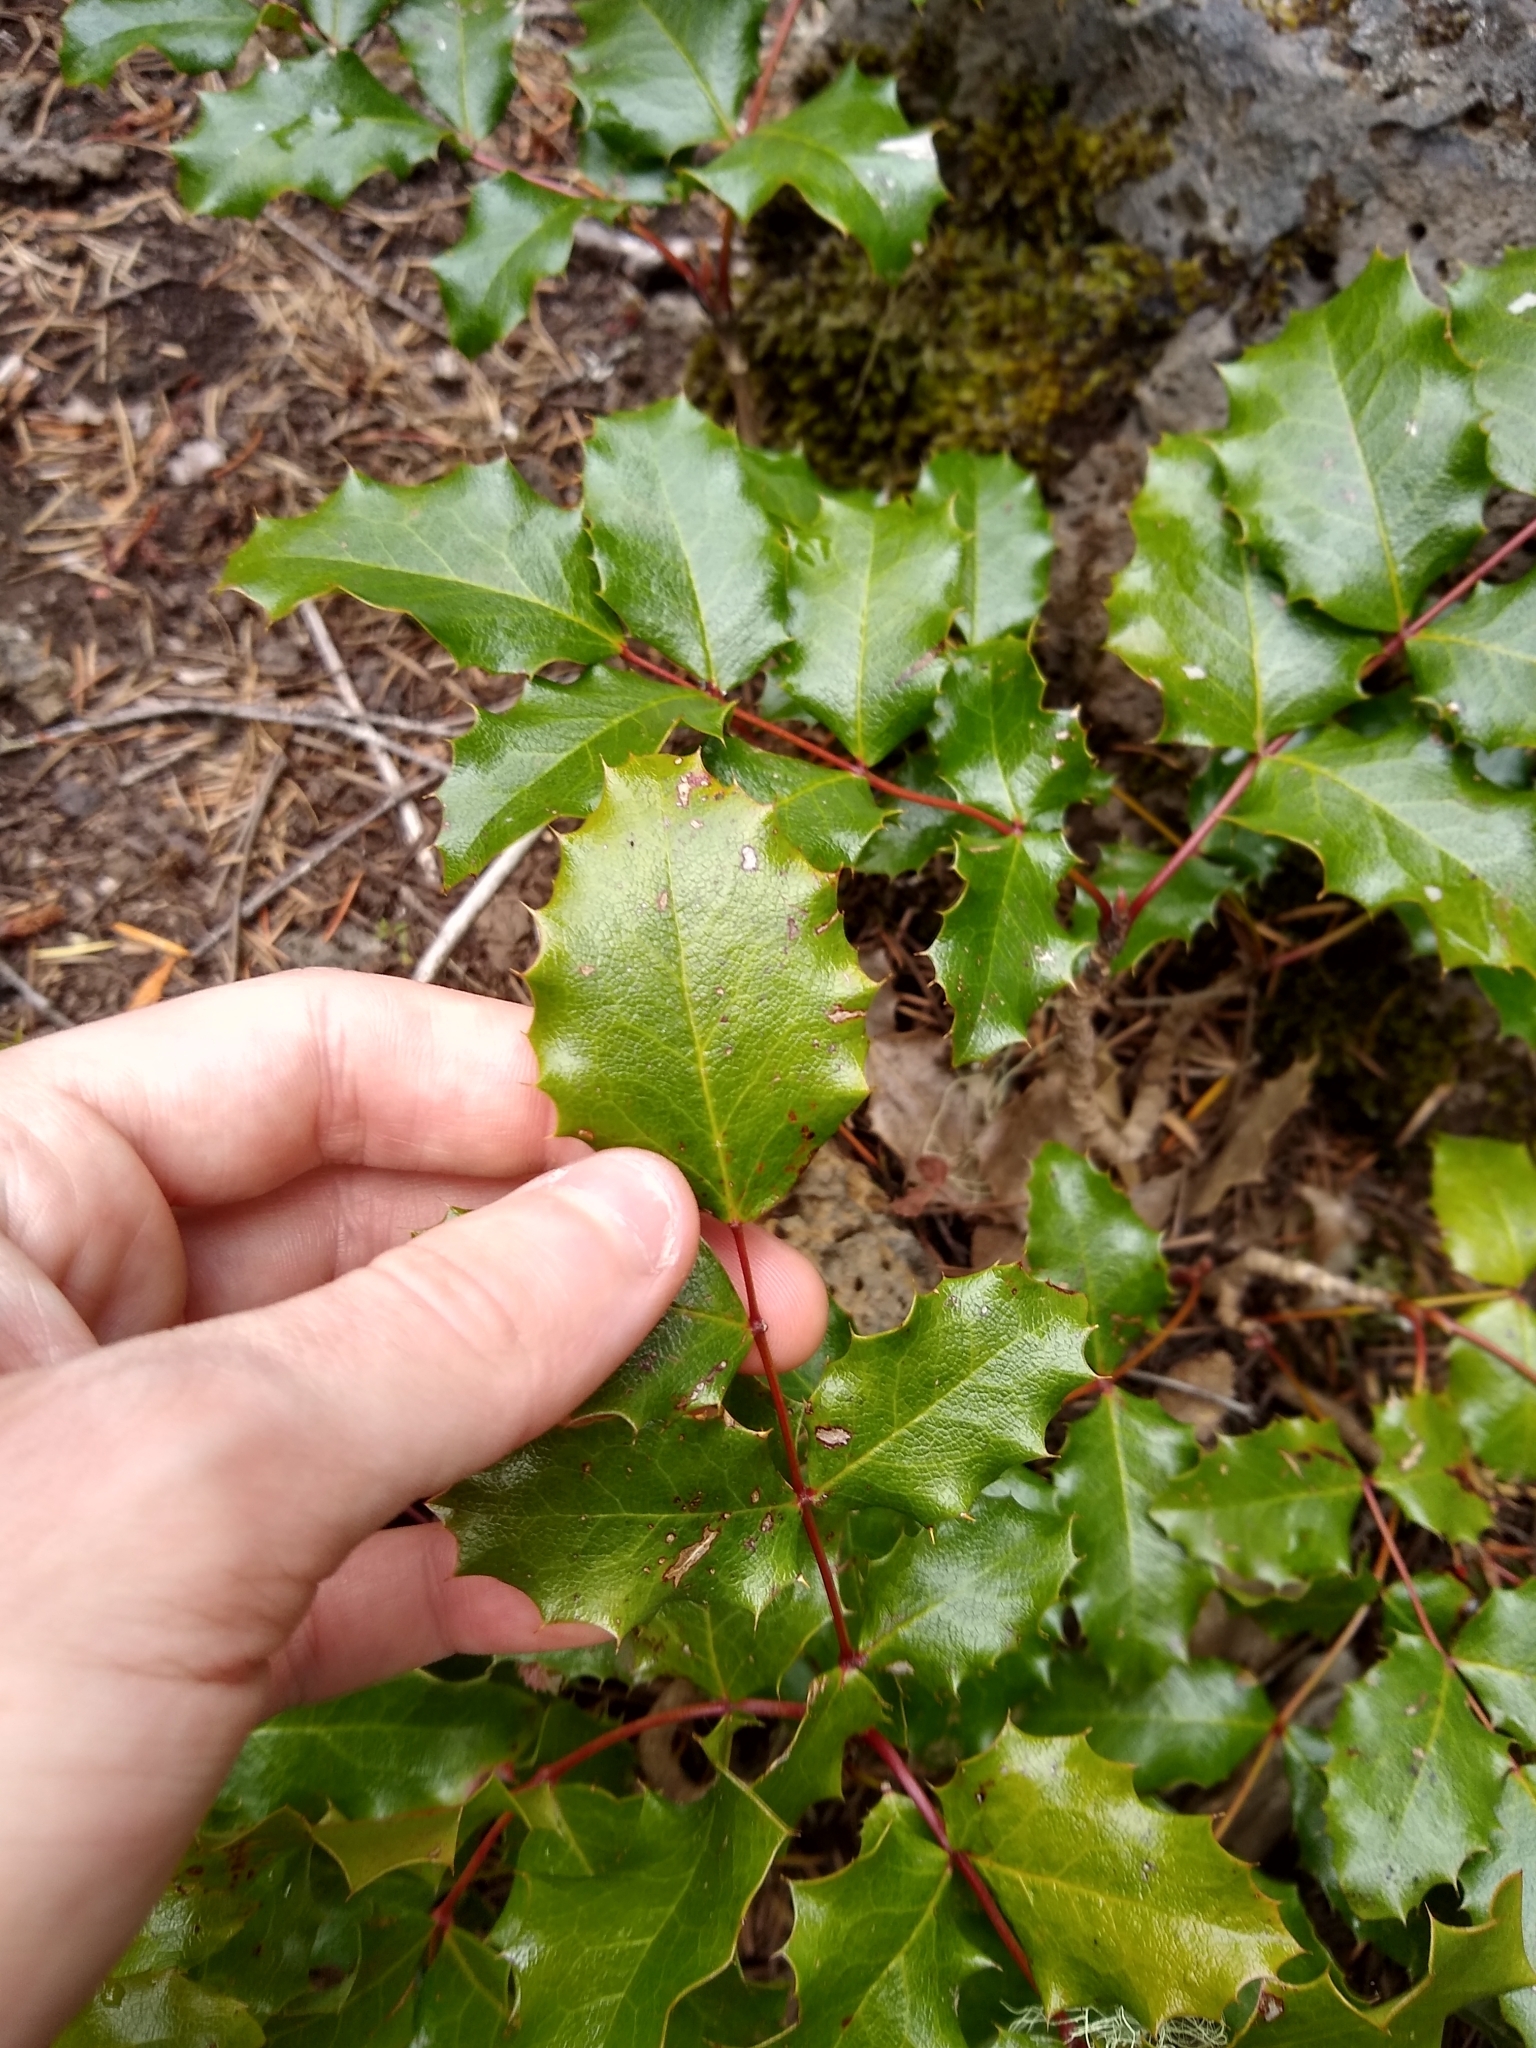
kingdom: Plantae
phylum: Tracheophyta
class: Magnoliopsida
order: Ranunculales
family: Berberidaceae
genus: Mahonia
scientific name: Mahonia aquifolium
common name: Oregon-grape
